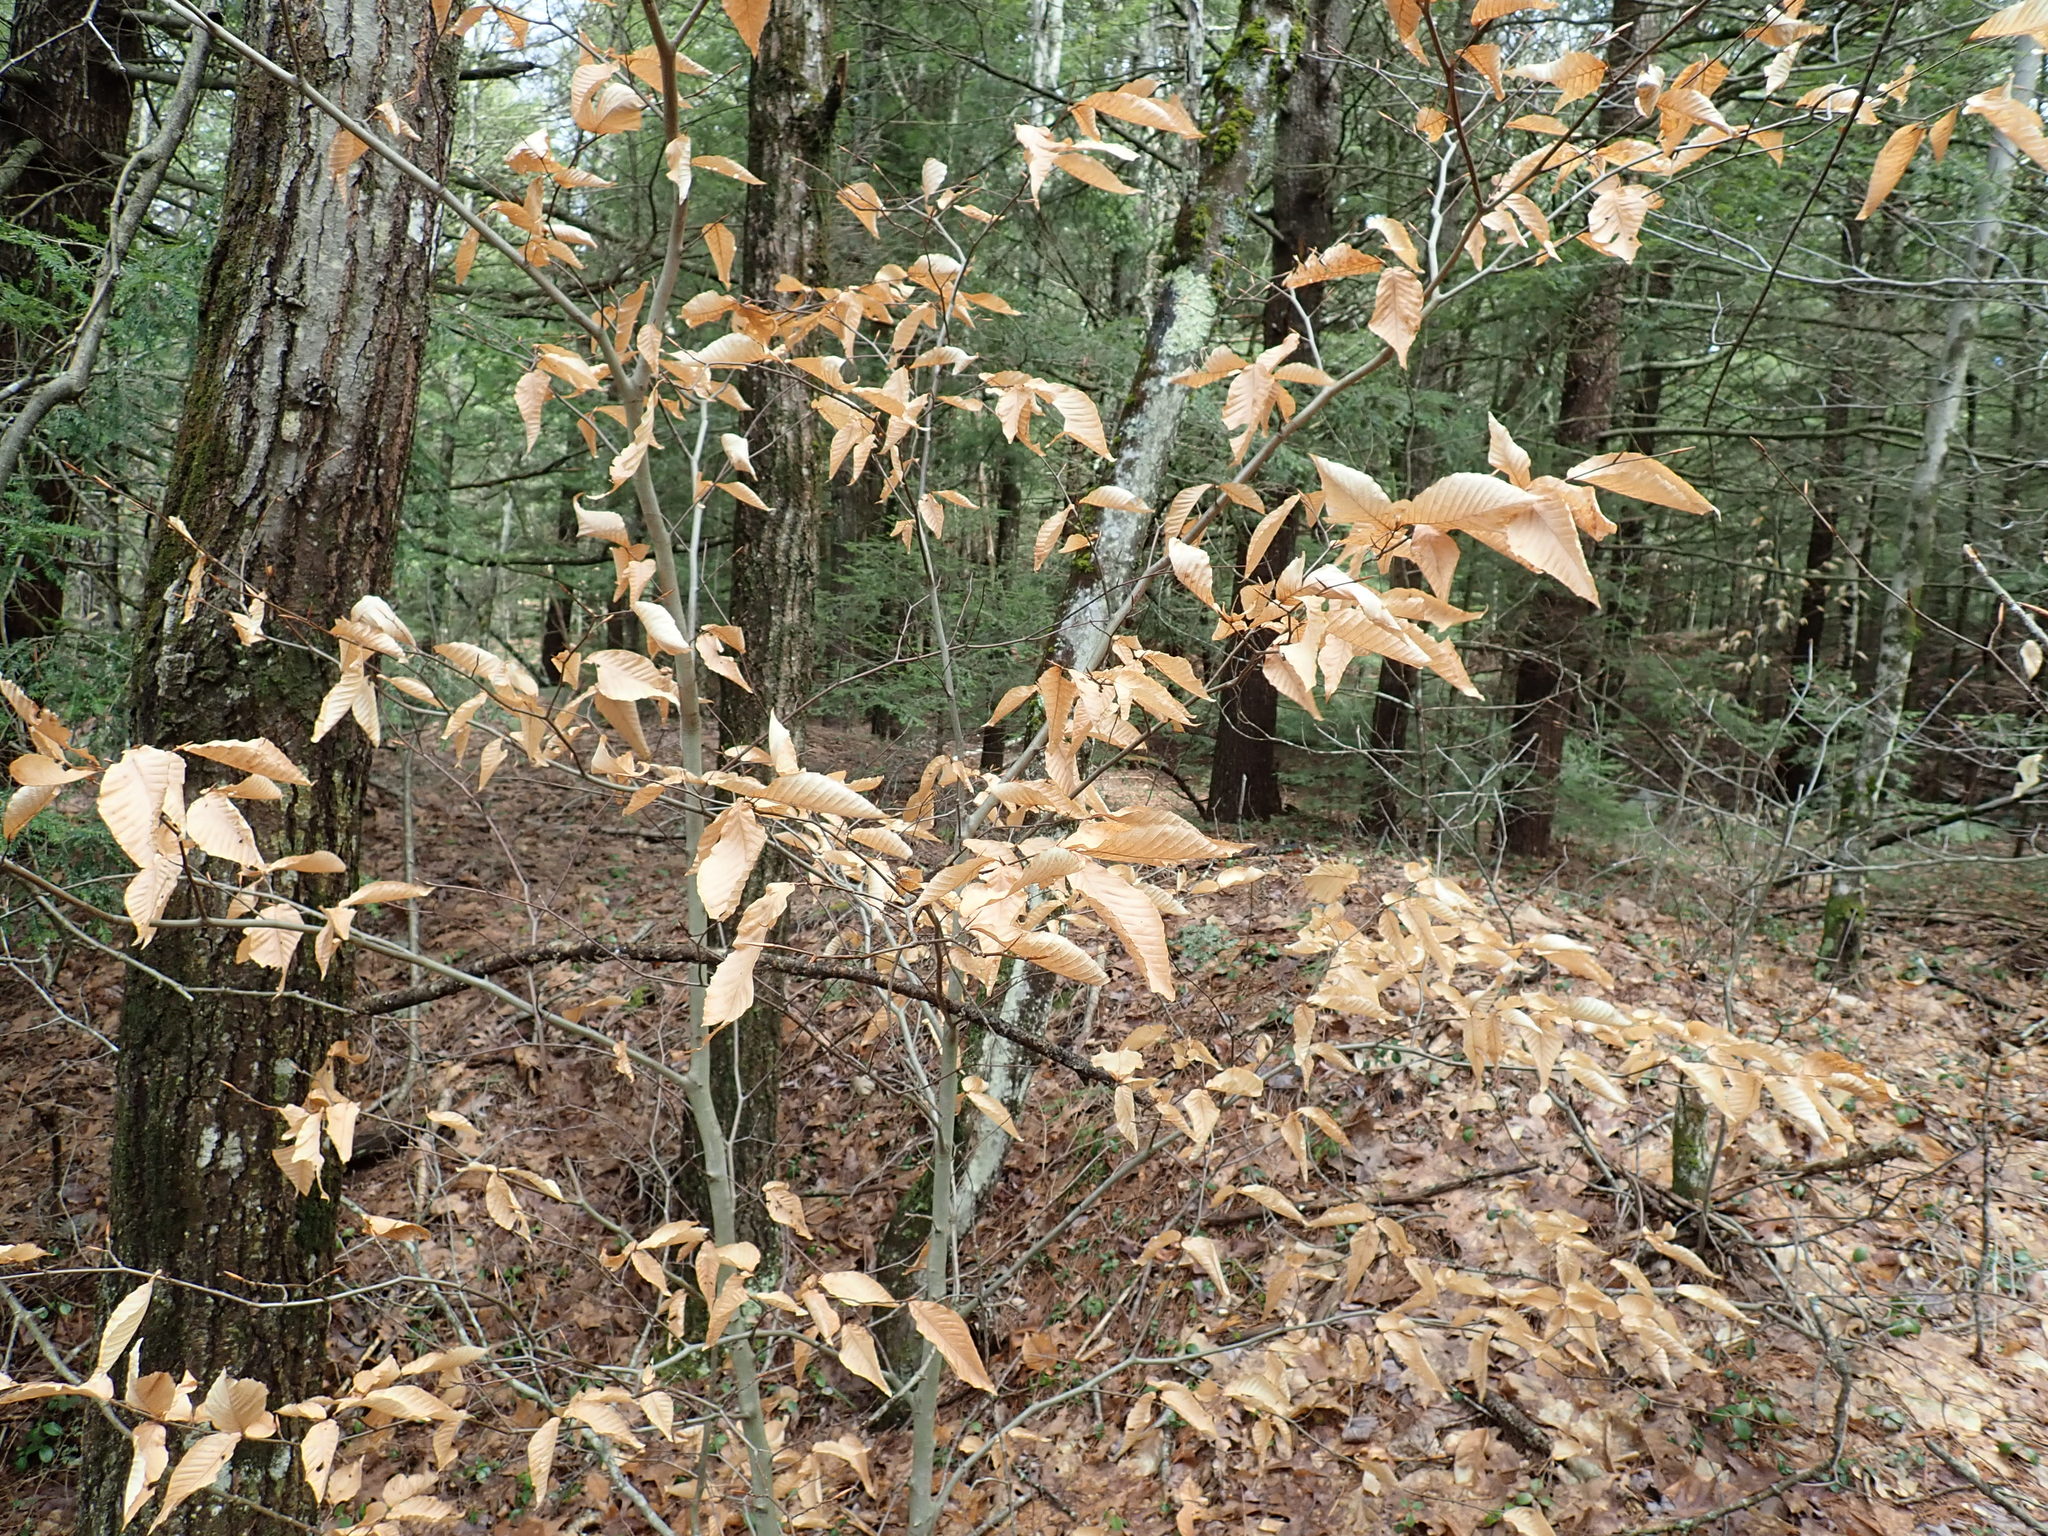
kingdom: Plantae
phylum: Tracheophyta
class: Magnoliopsida
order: Fagales
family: Fagaceae
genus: Fagus
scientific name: Fagus grandifolia
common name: American beech
